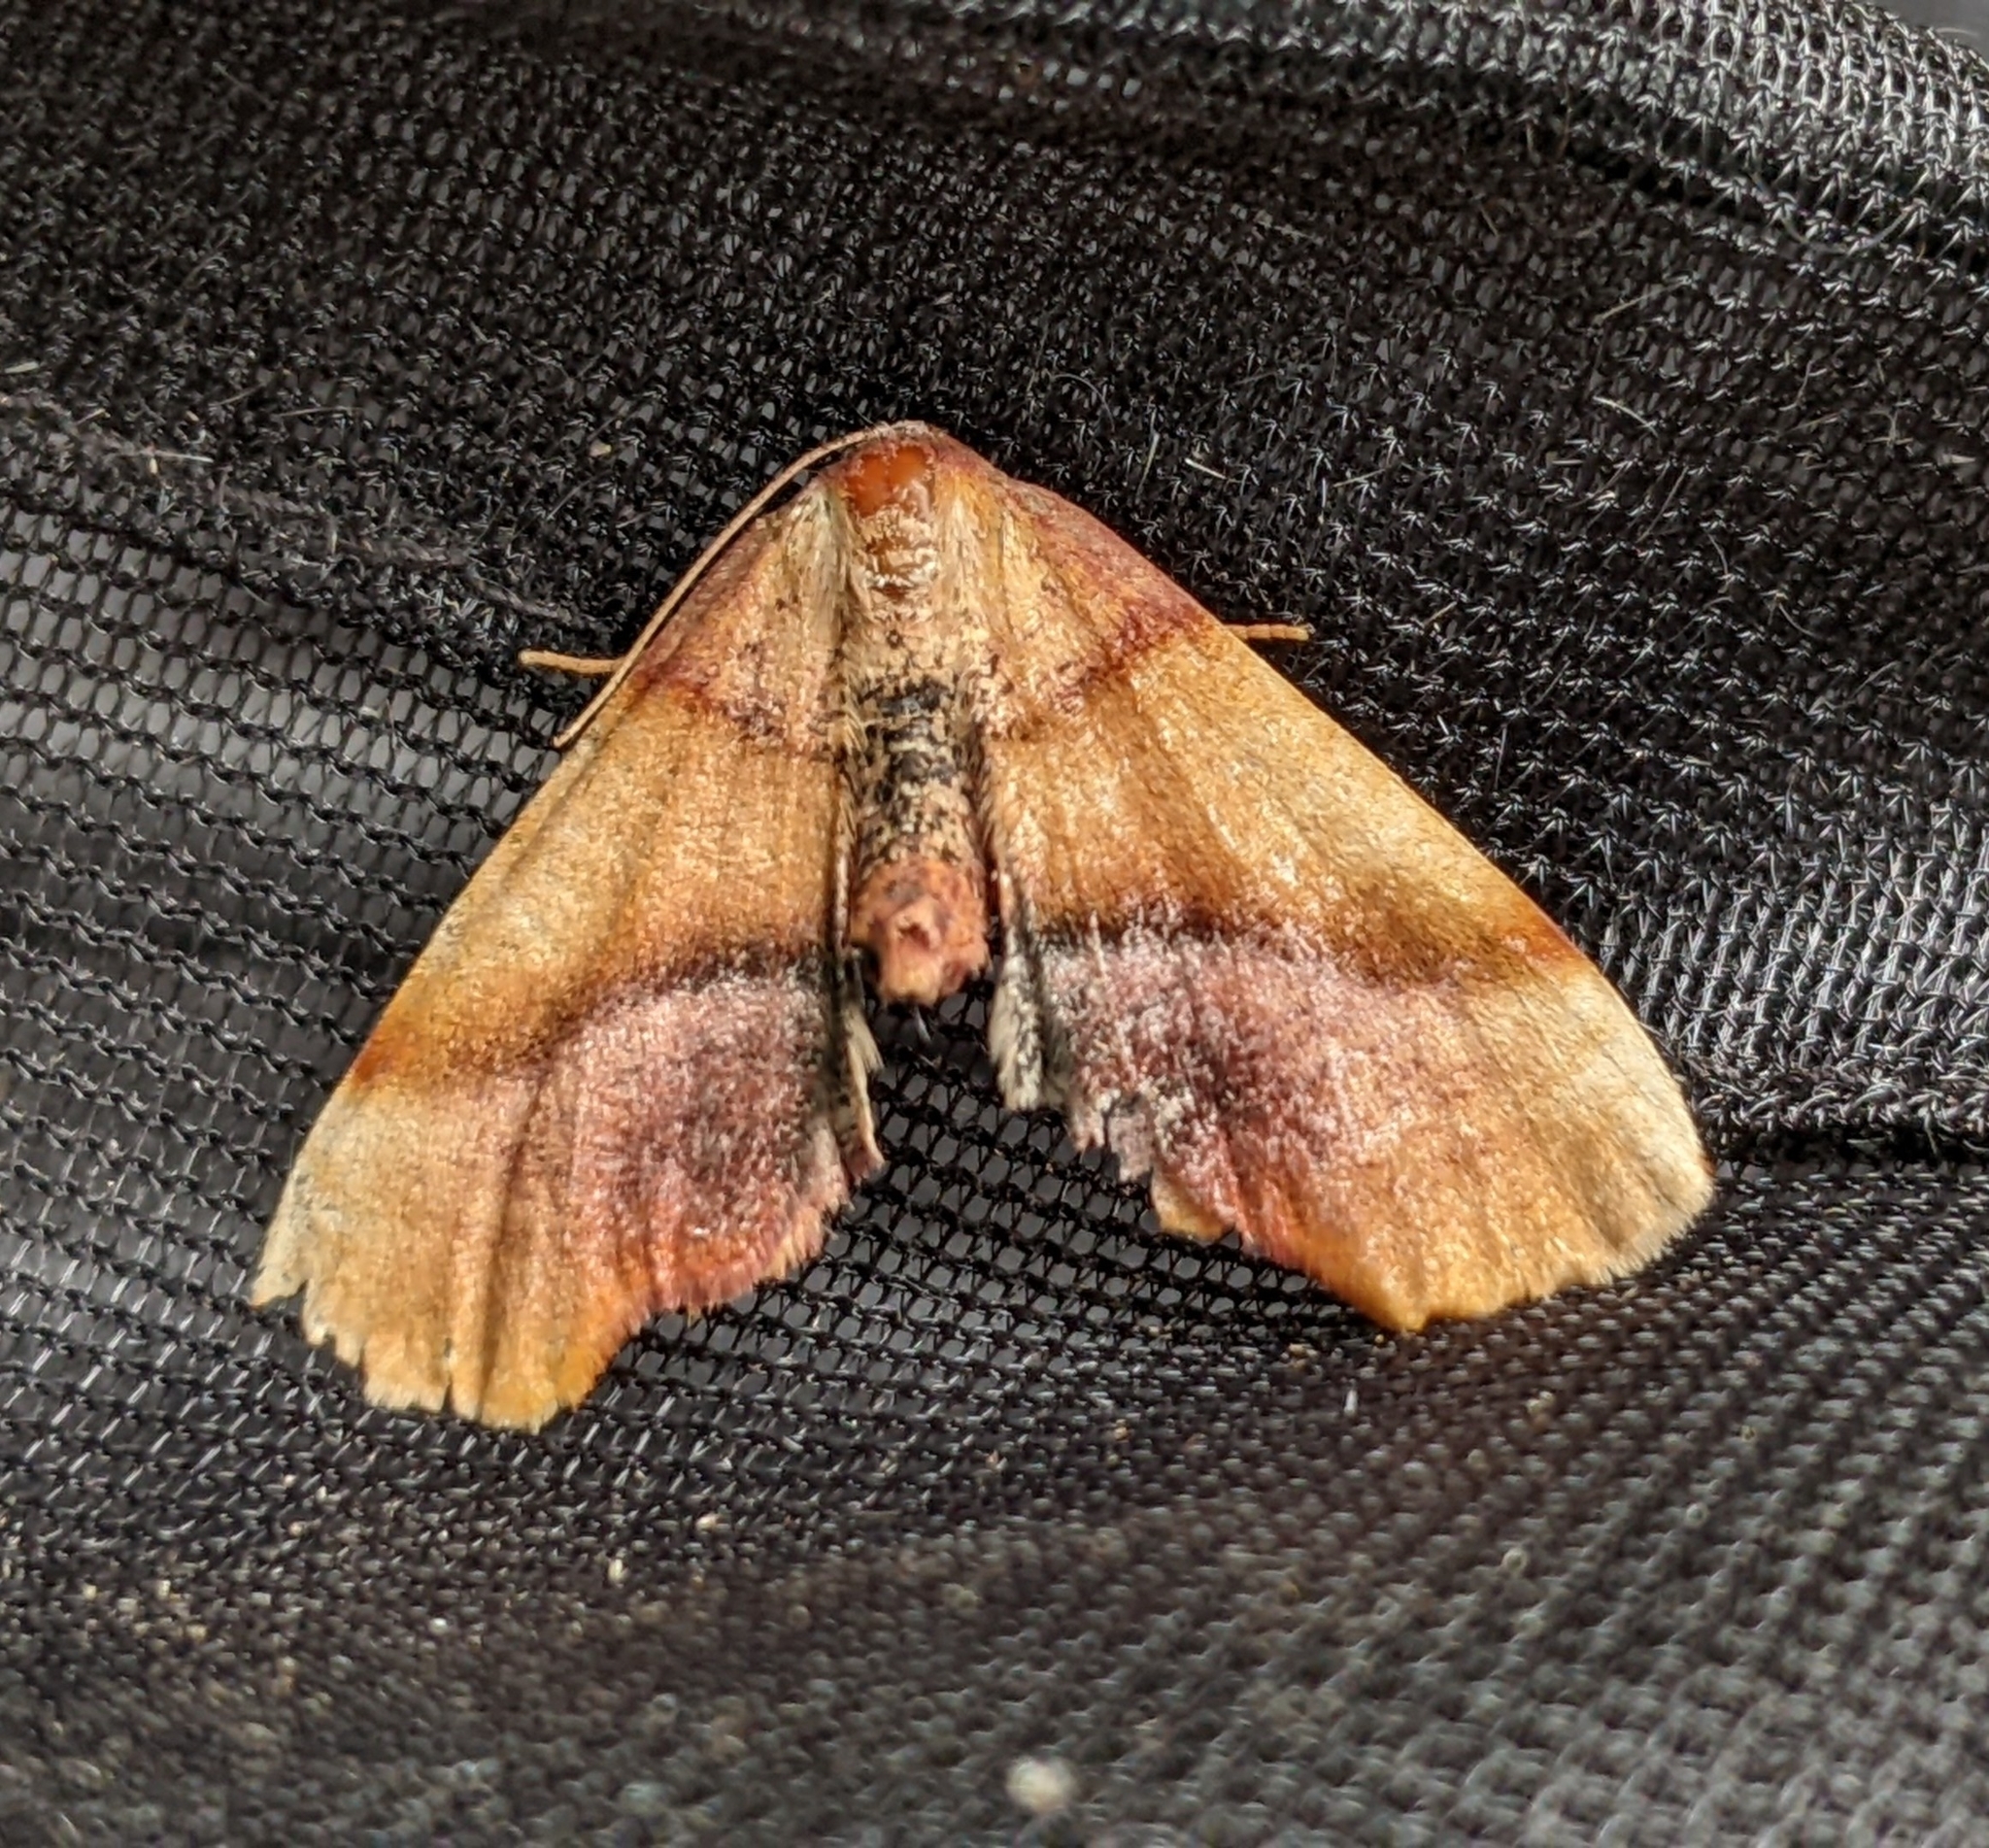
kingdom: Animalia
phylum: Arthropoda
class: Insecta
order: Lepidoptera
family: Geometridae
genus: Plagodis
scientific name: Plagodis phlogosaria
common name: Straight-lined plagodis
